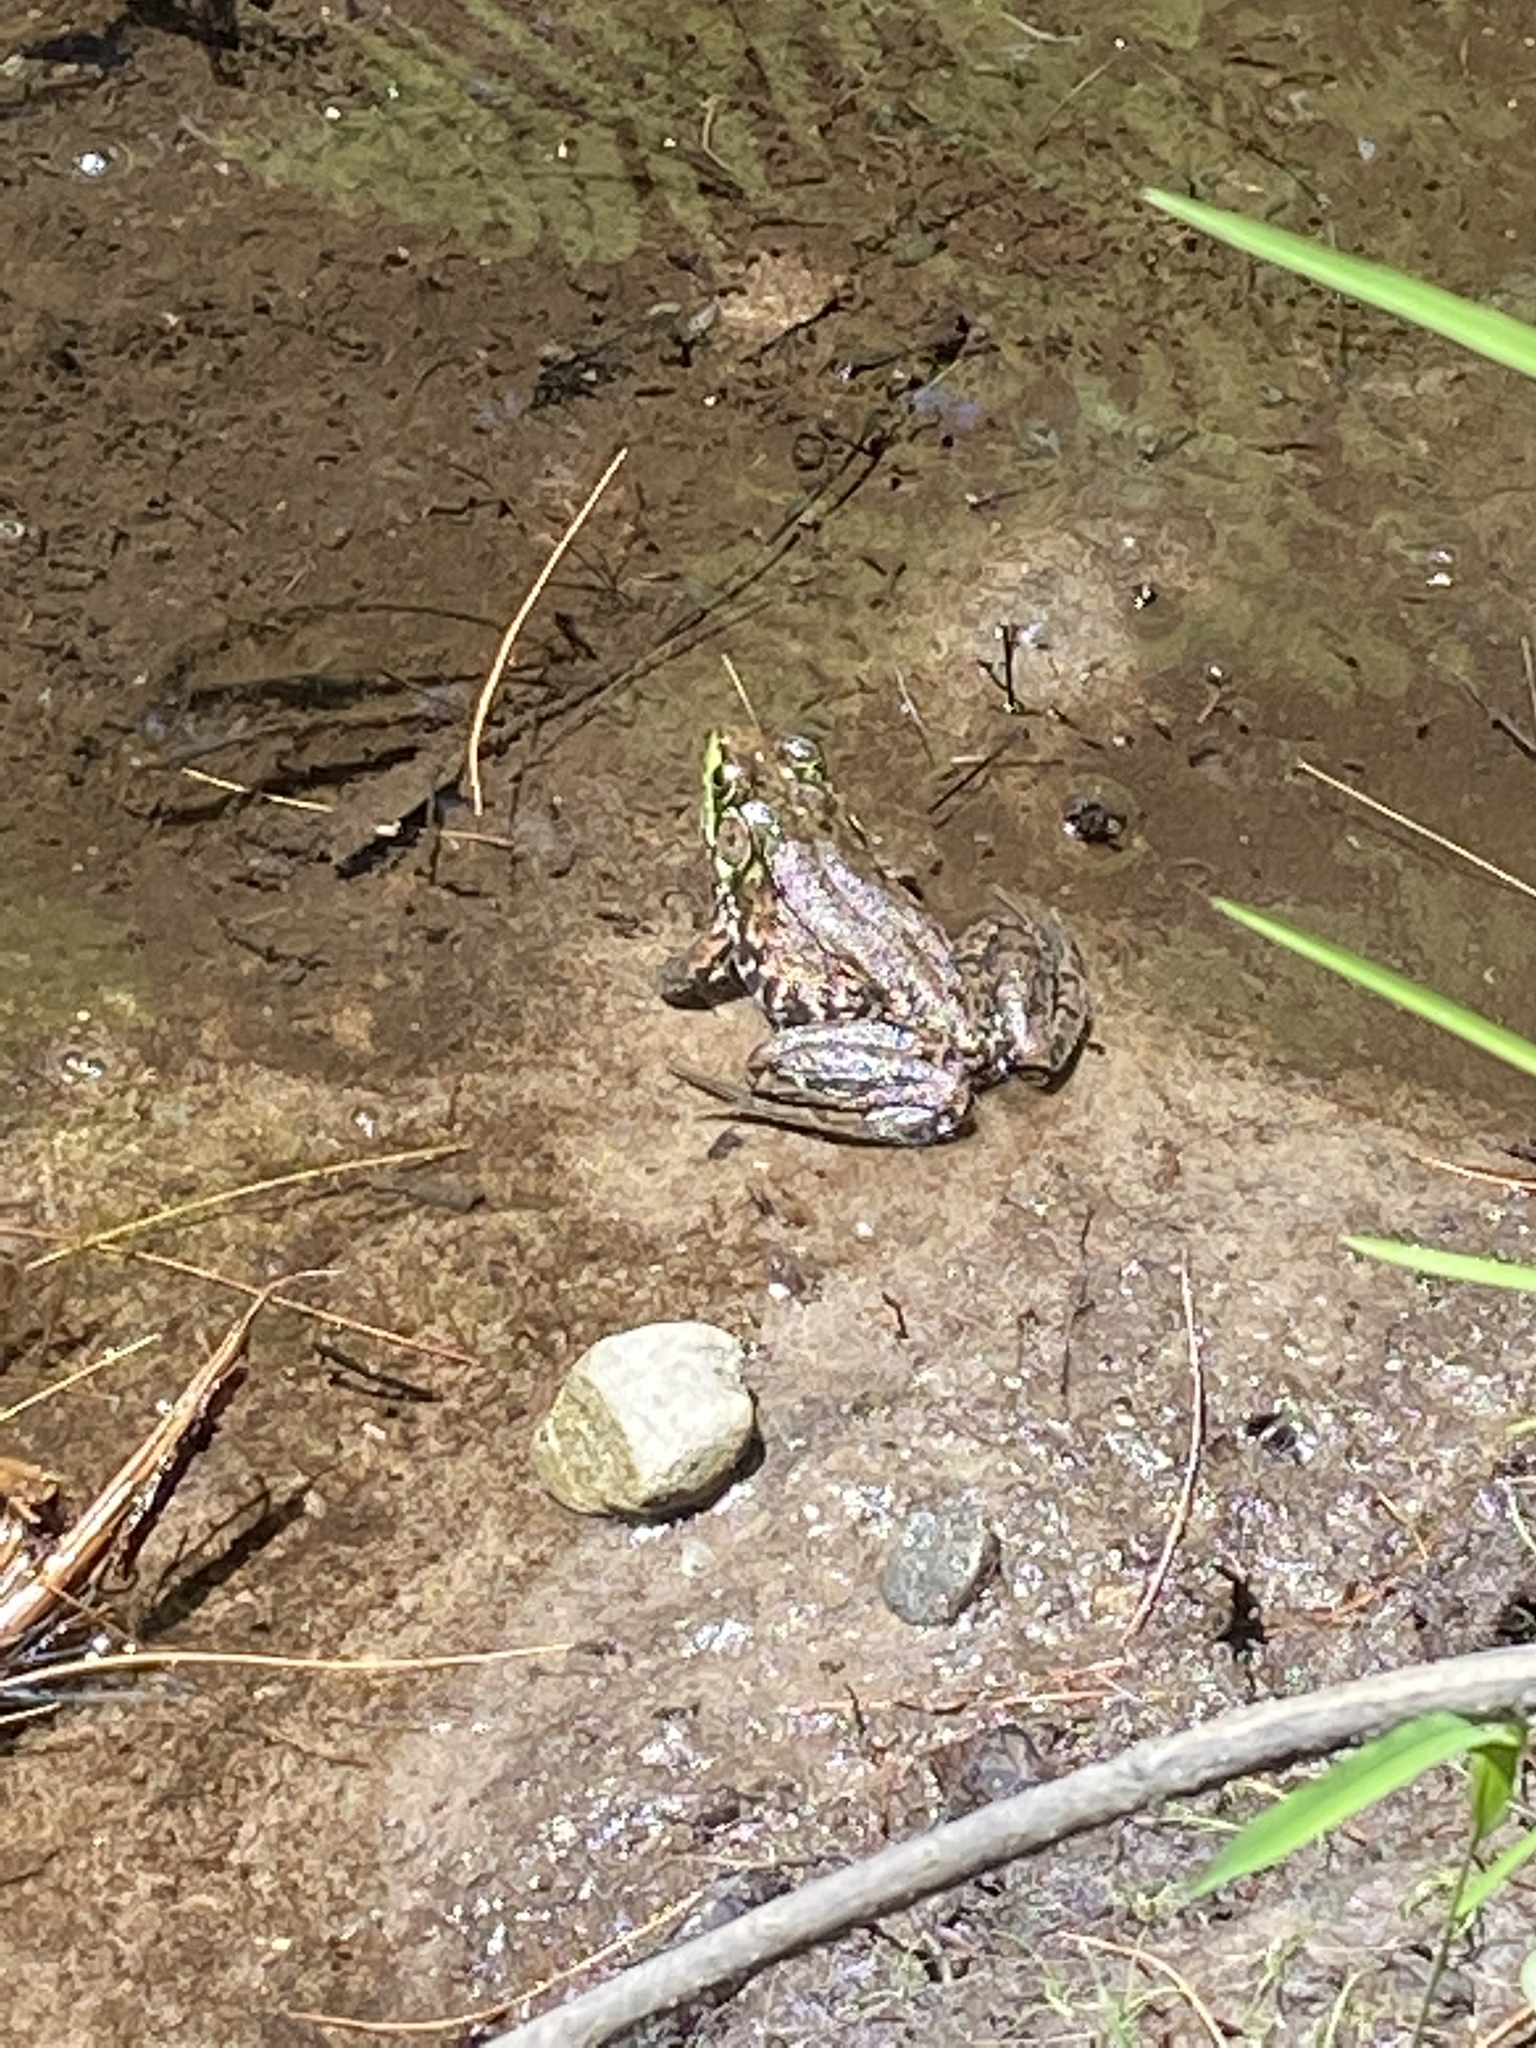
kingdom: Animalia
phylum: Chordata
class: Amphibia
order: Anura
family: Ranidae
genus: Lithobates
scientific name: Lithobates clamitans
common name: Green frog
